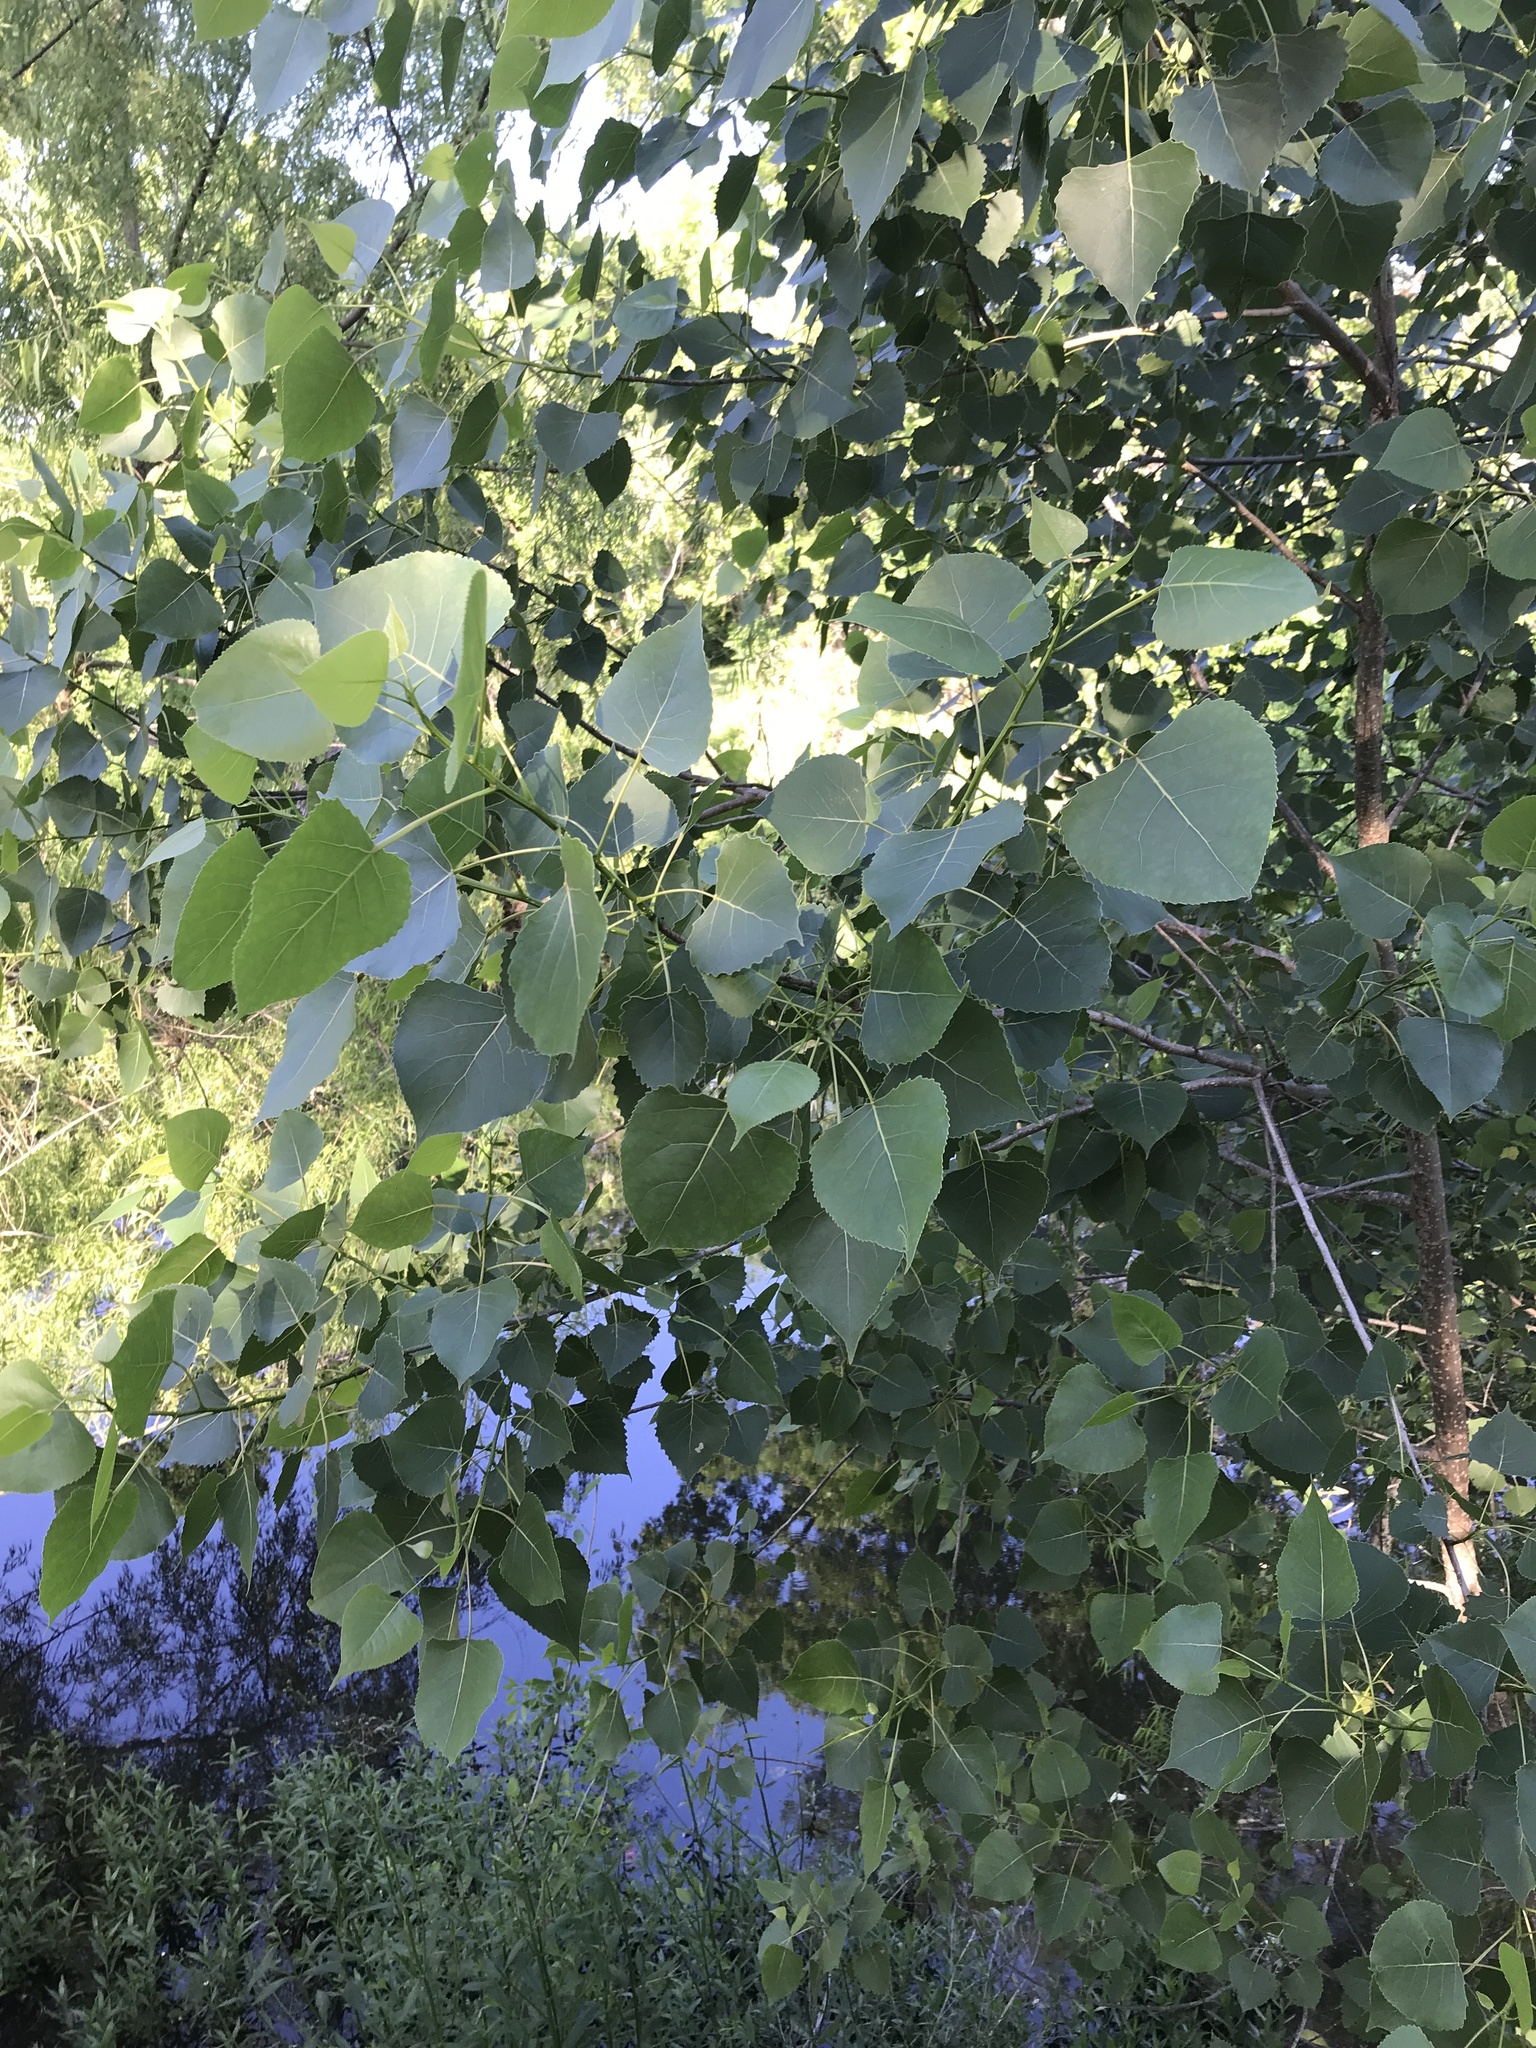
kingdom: Plantae
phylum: Tracheophyta
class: Magnoliopsida
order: Malpighiales
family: Salicaceae
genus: Populus
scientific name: Populus deltoides
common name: Eastern cottonwood
